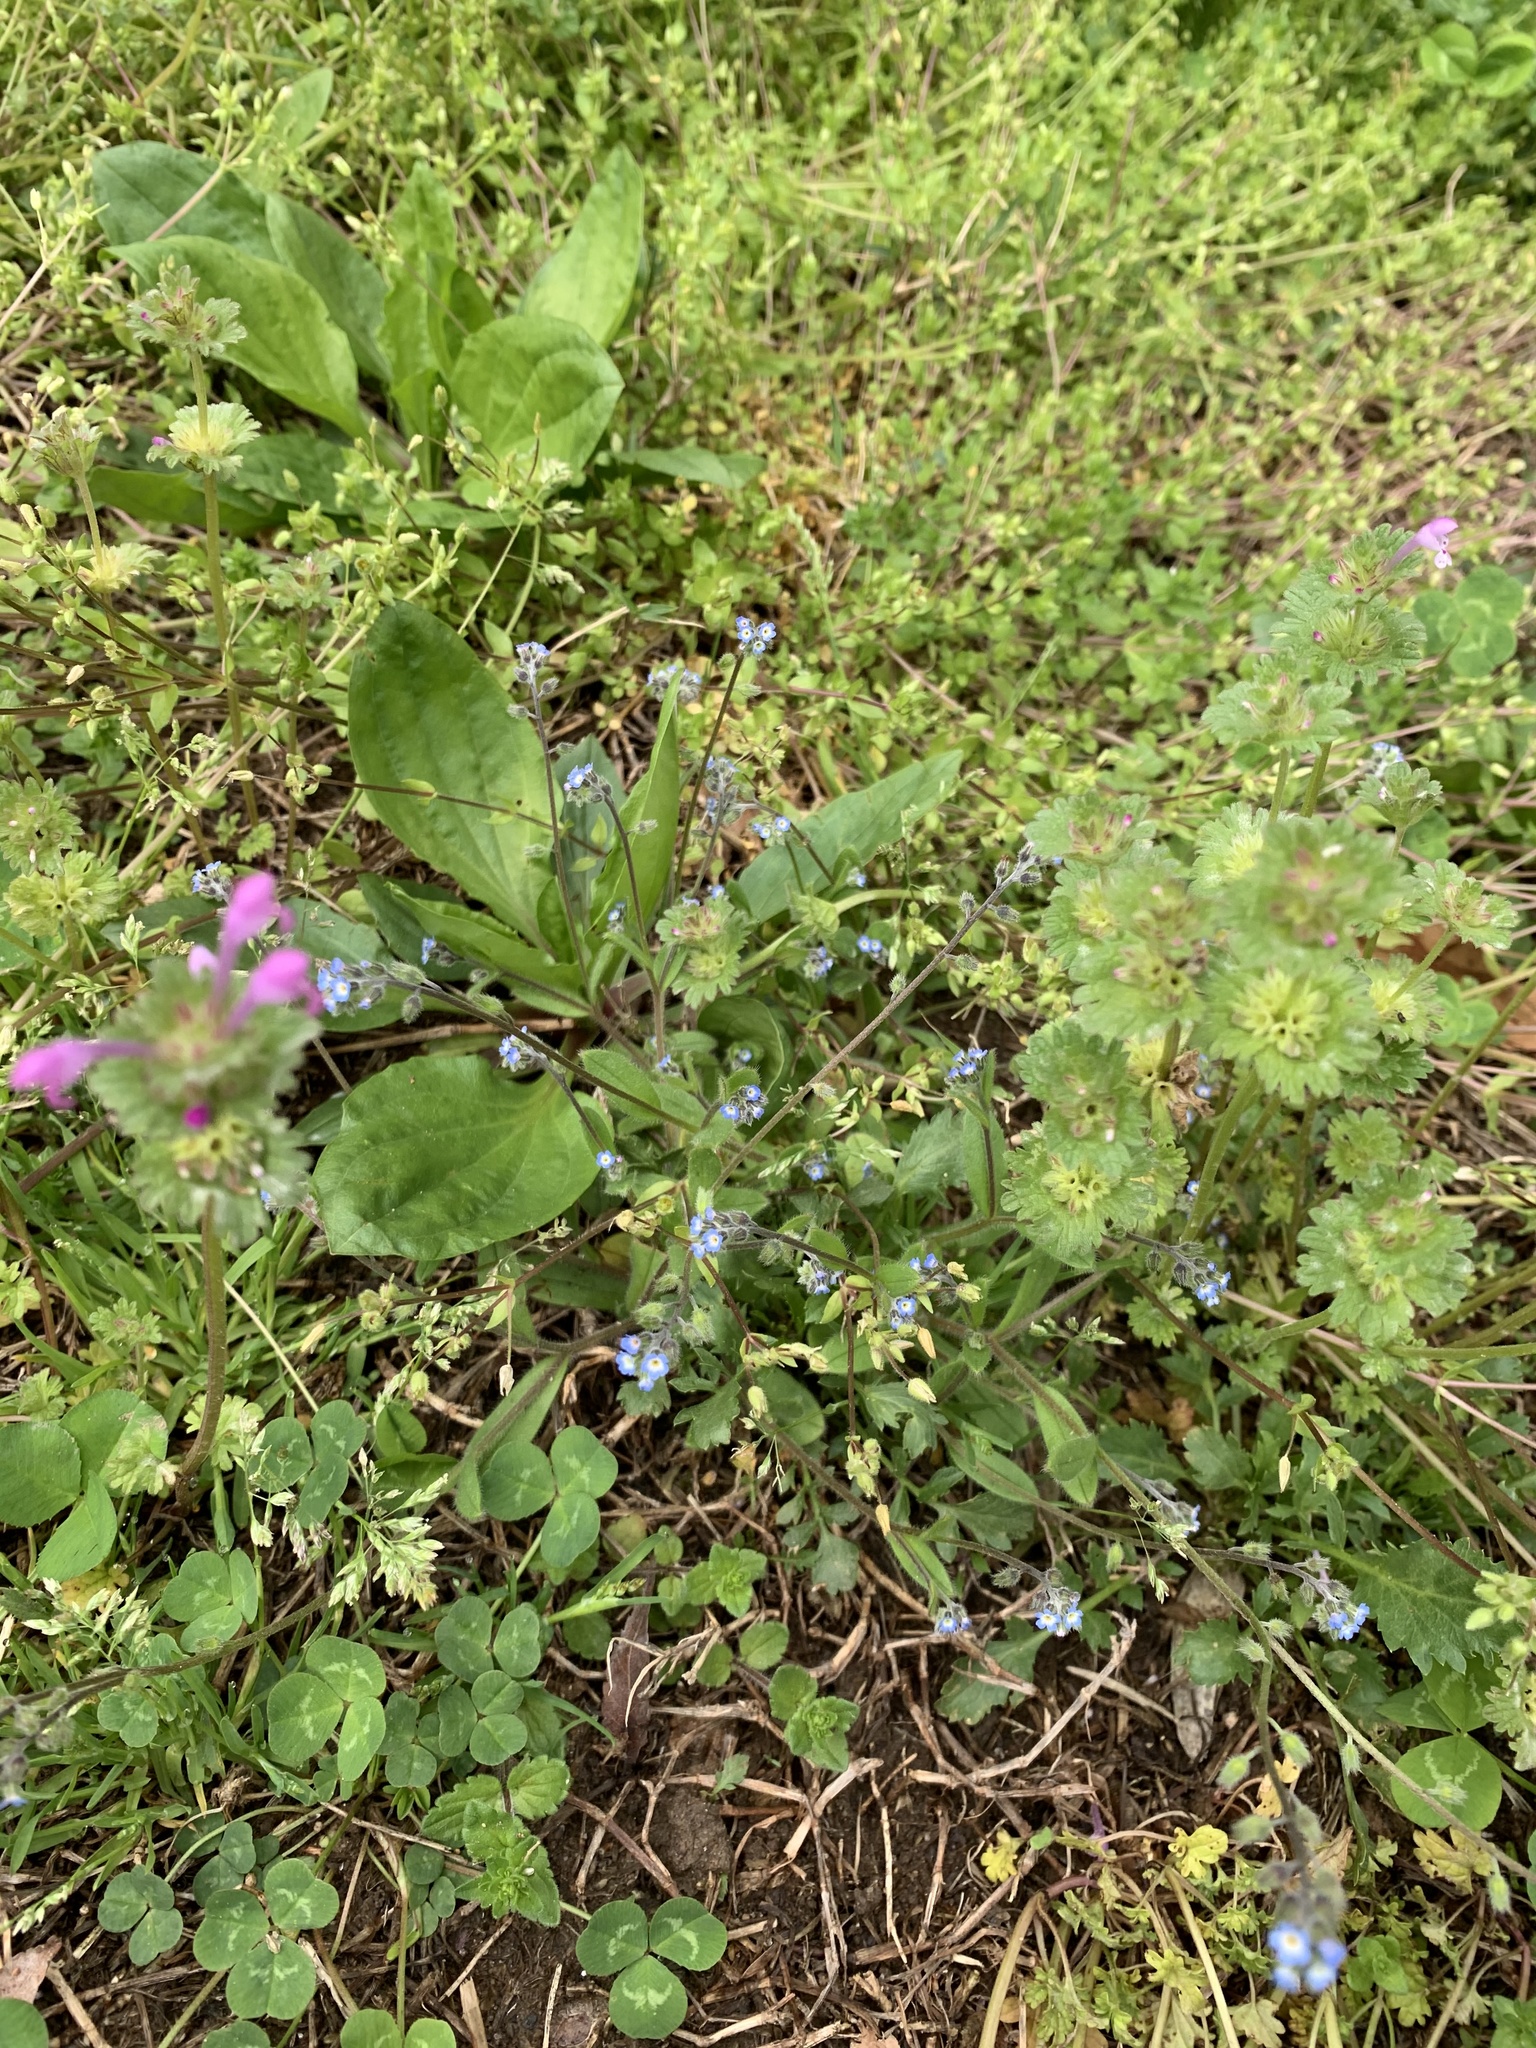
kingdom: Plantae
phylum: Tracheophyta
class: Magnoliopsida
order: Boraginales
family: Boraginaceae
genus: Myosotis
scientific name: Myosotis ramosissima
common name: Early forget-me-not
